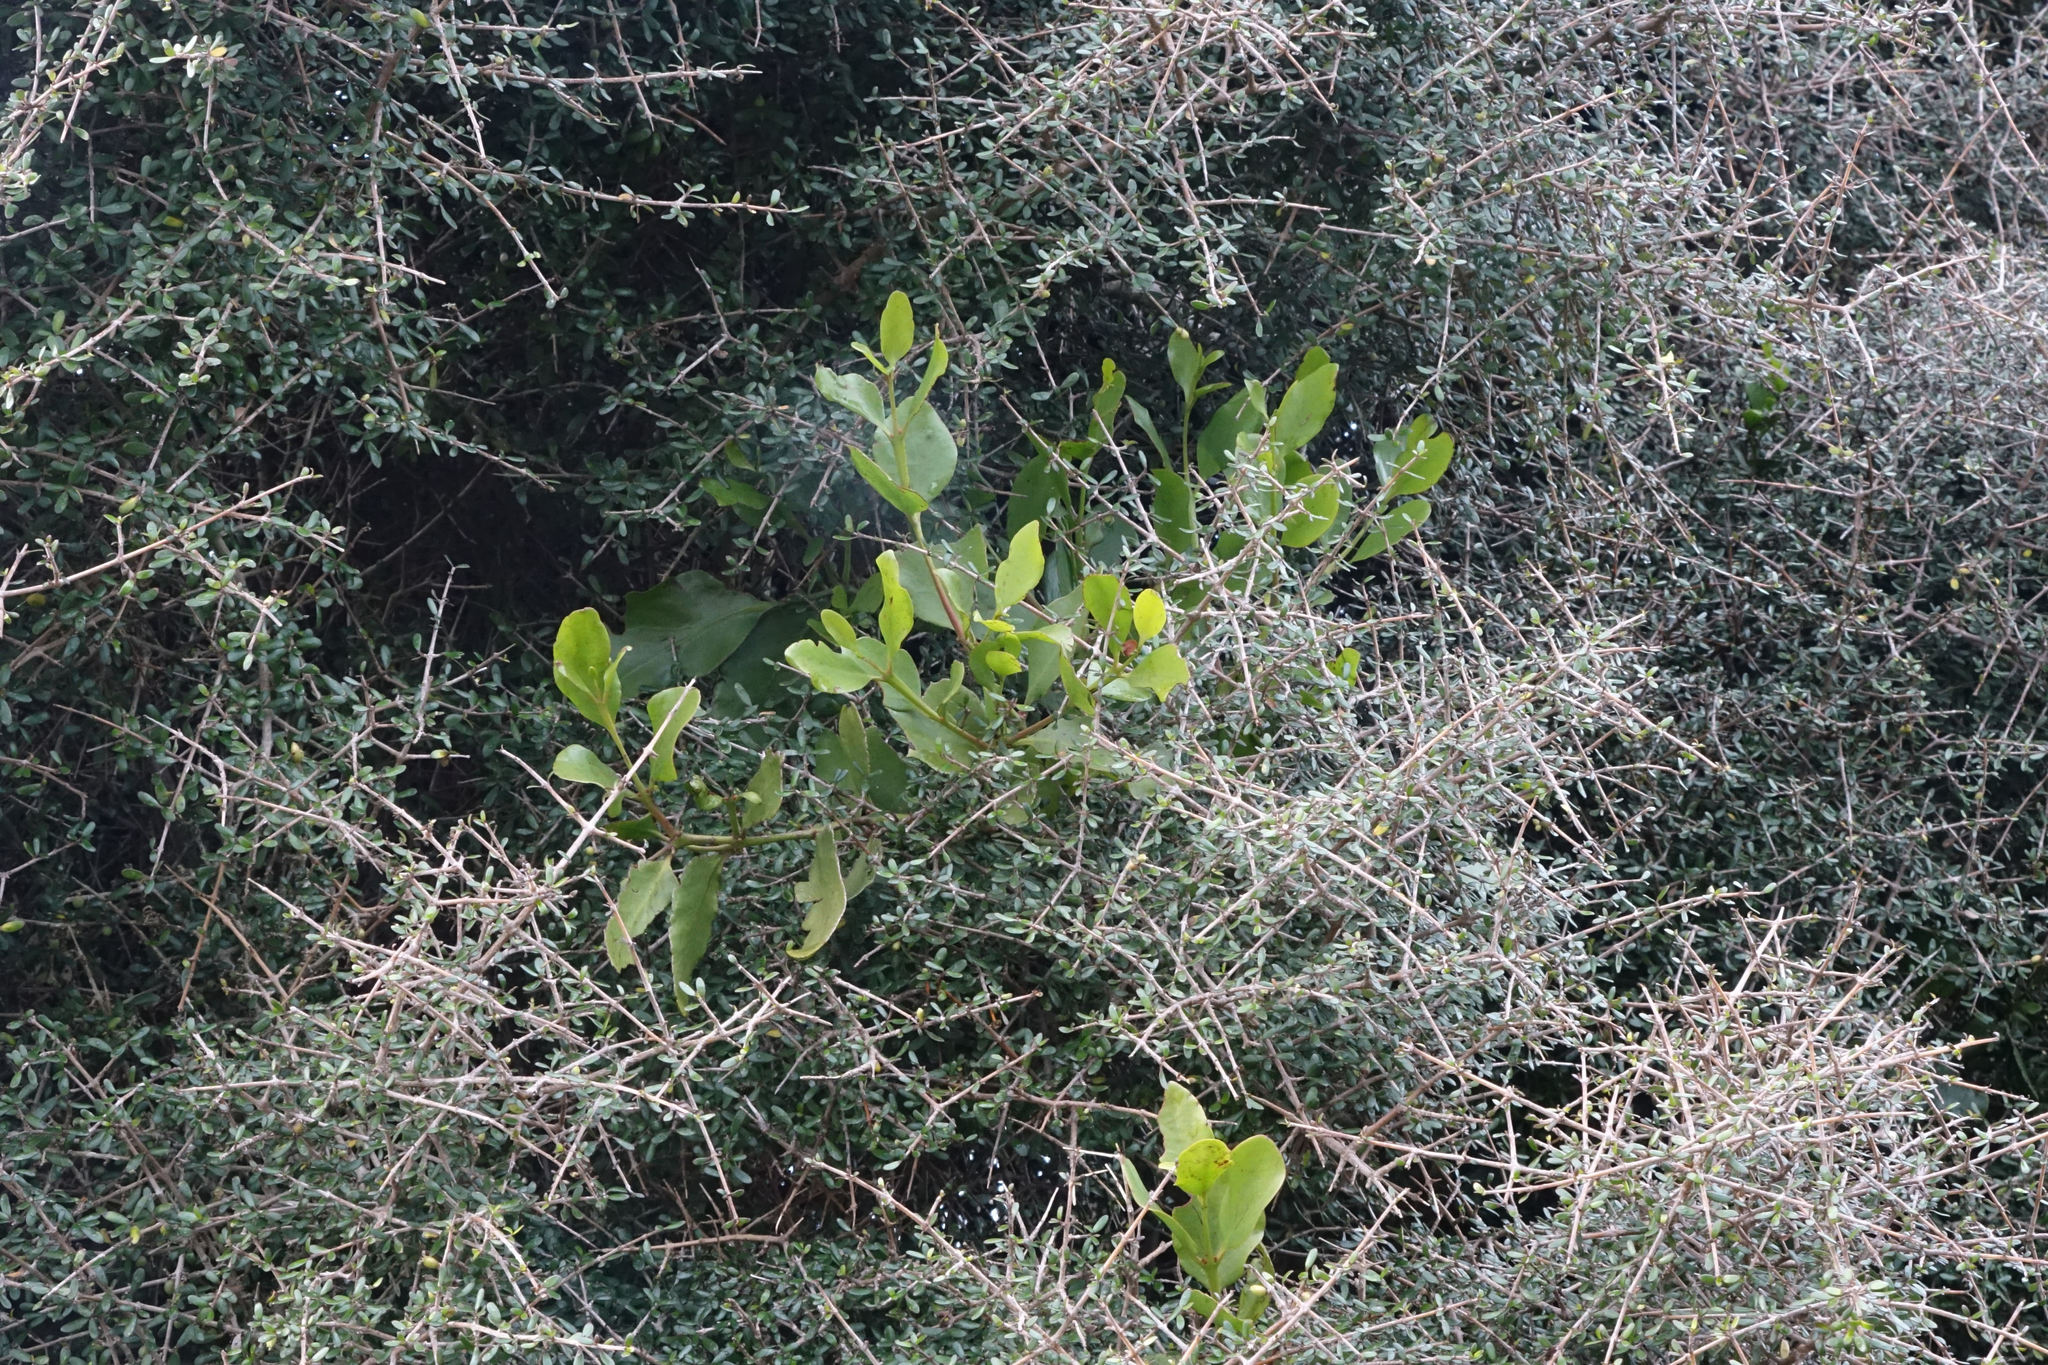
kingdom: Plantae
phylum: Tracheophyta
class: Magnoliopsida
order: Santalales
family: Loranthaceae
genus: Ileostylus
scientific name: Ileostylus micranthus
